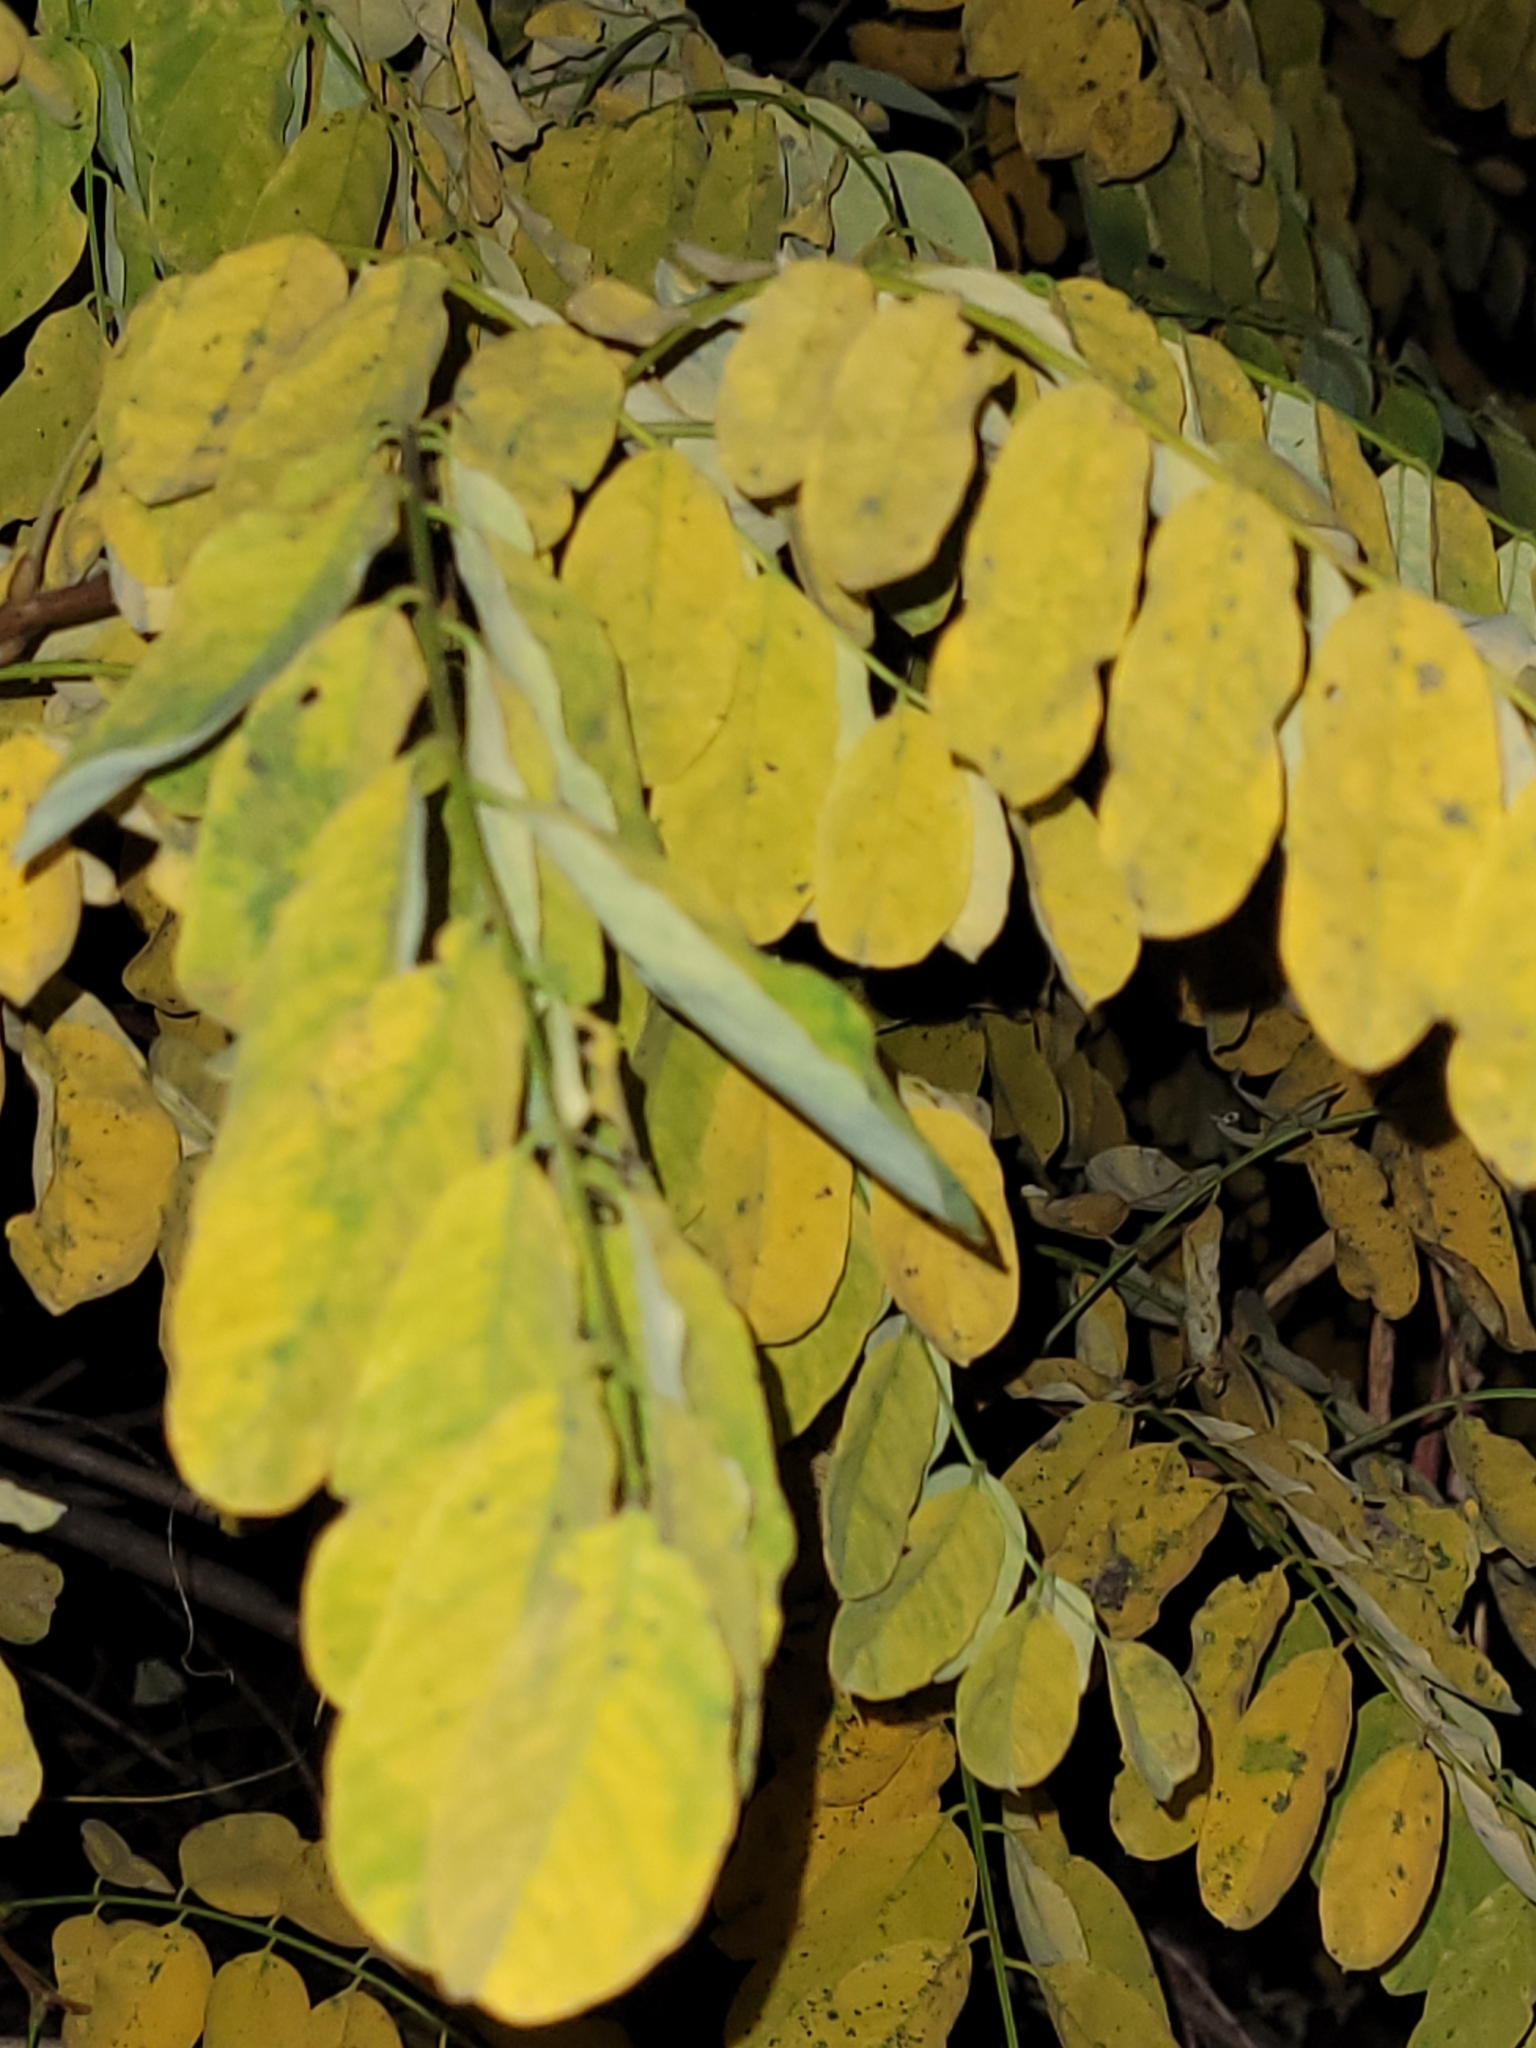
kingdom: Plantae
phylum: Tracheophyta
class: Magnoliopsida
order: Fabales
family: Fabaceae
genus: Robinia
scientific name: Robinia pseudoacacia
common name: Black locust
